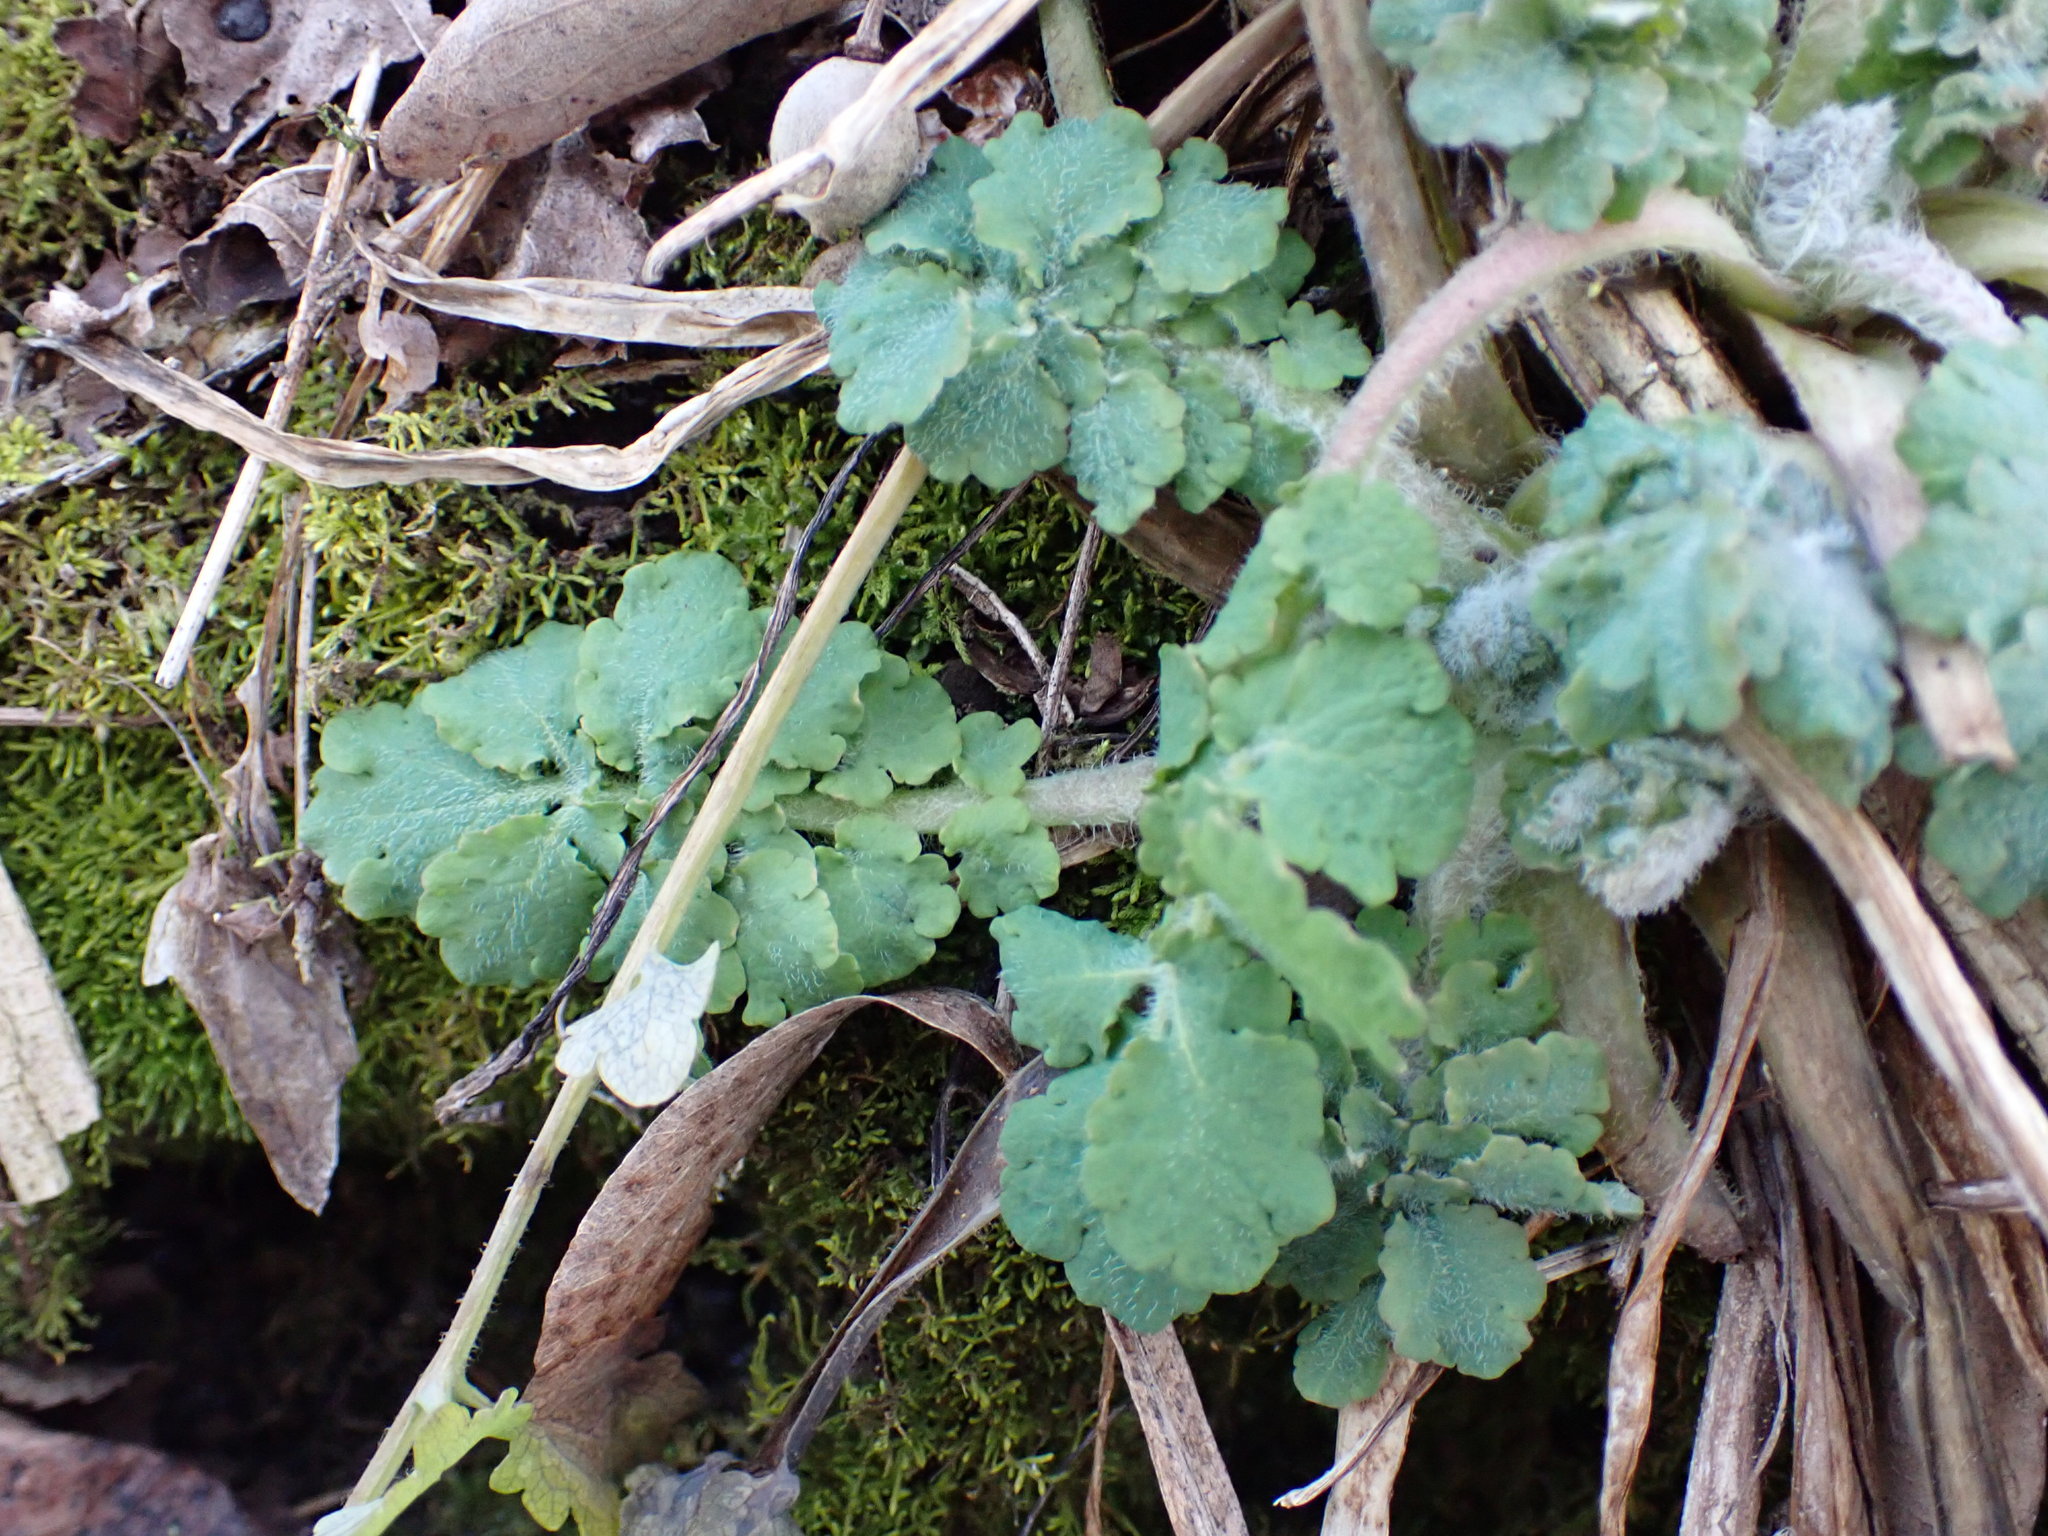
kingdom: Plantae
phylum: Tracheophyta
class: Magnoliopsida
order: Ranunculales
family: Papaveraceae
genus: Chelidonium
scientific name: Chelidonium majus
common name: Greater celandine
